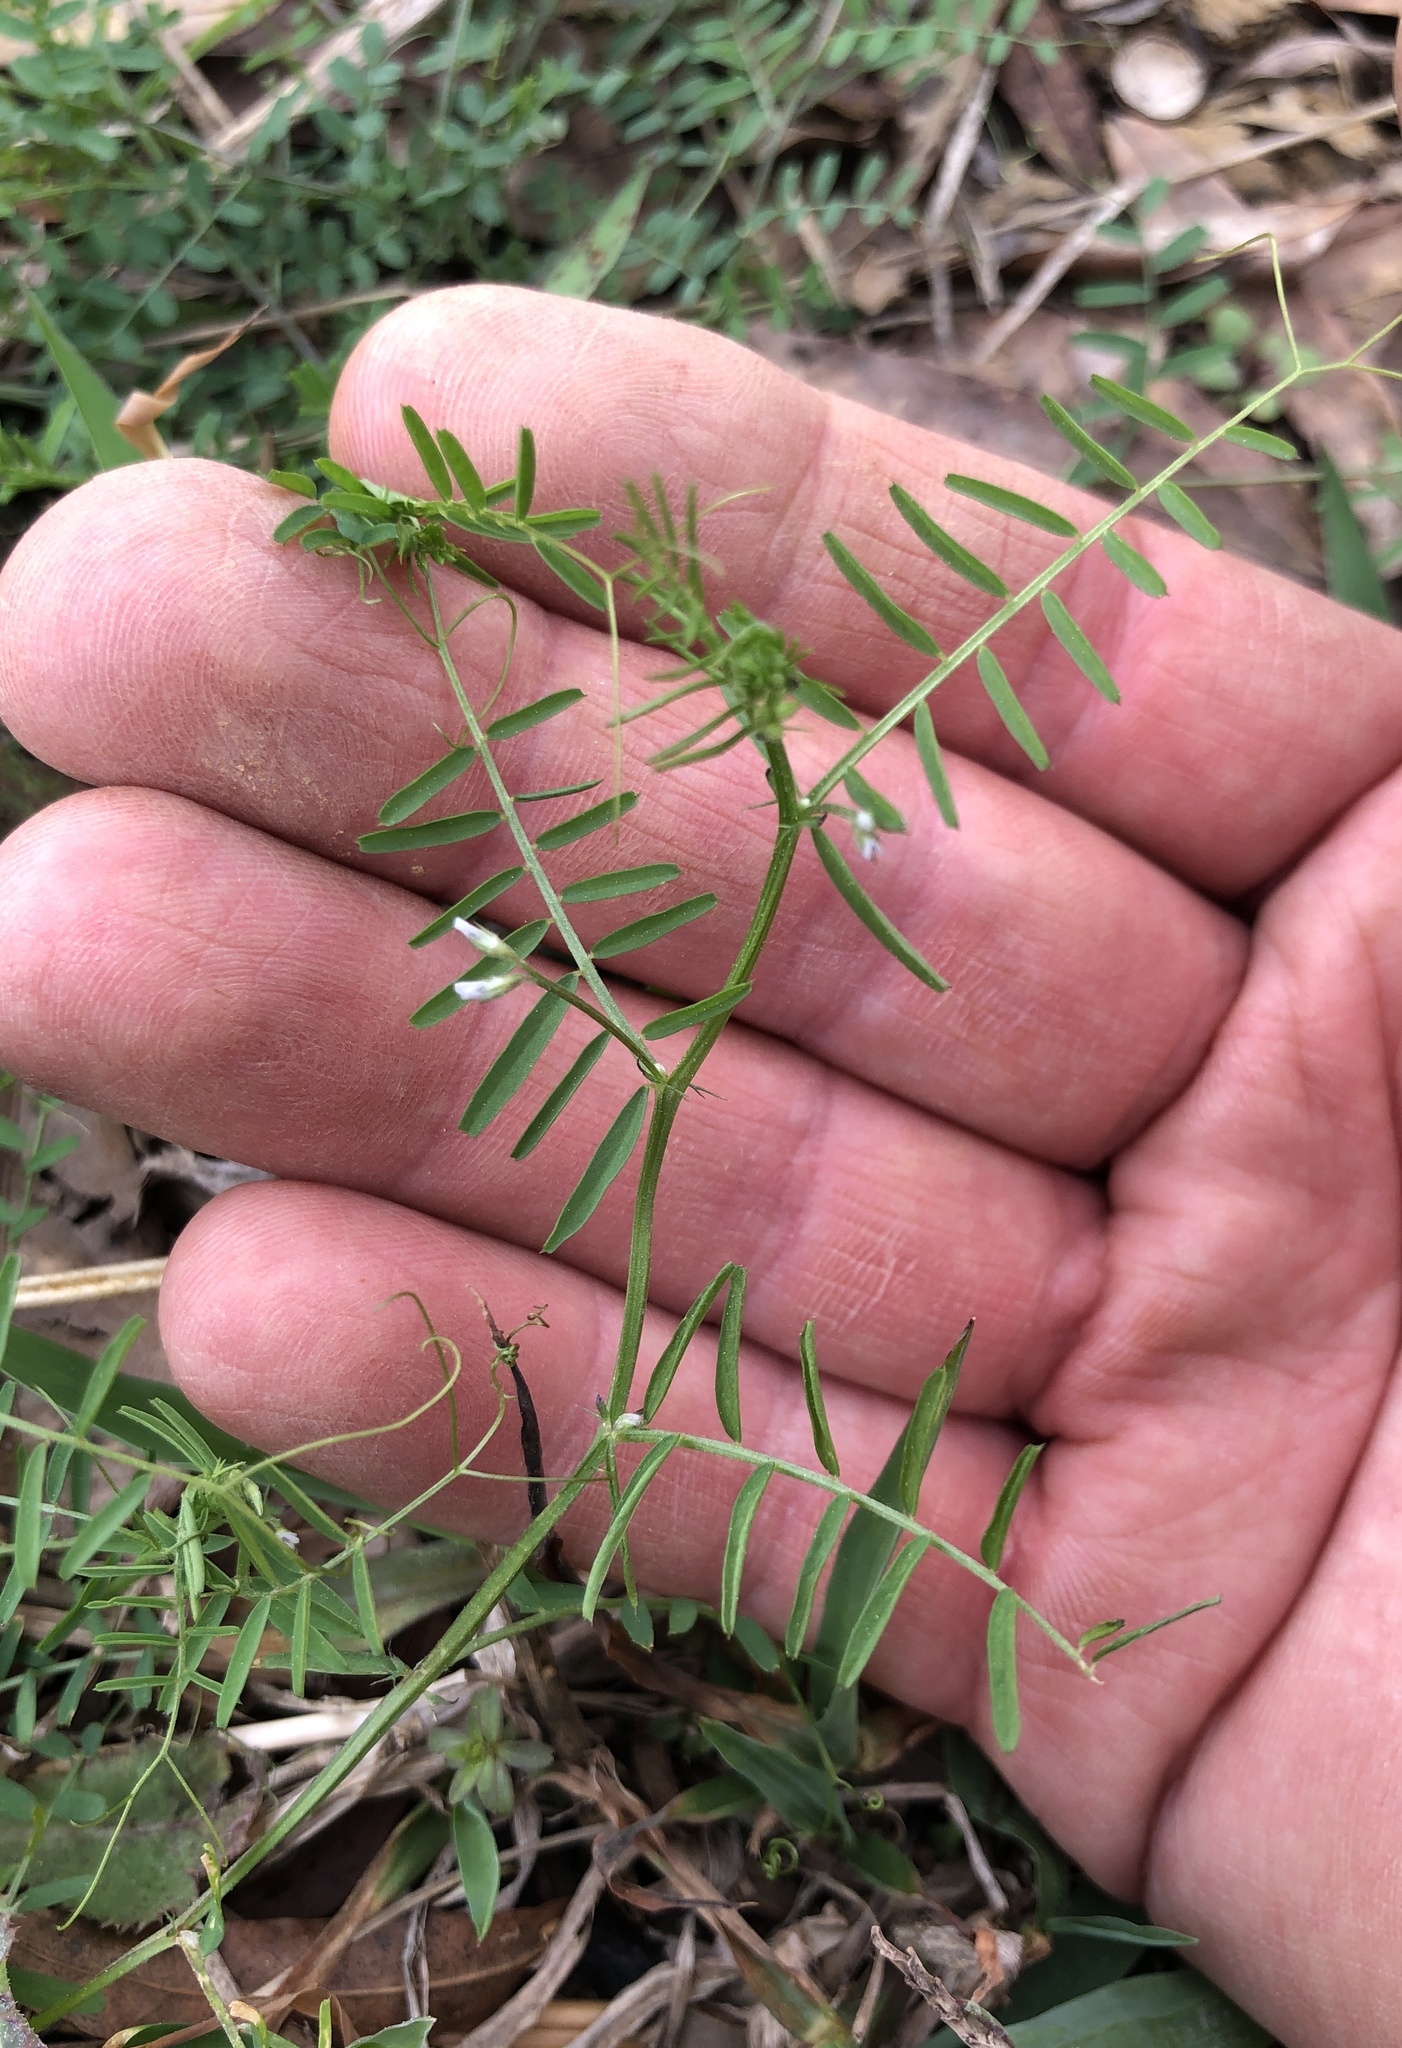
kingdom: Plantae
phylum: Tracheophyta
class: Magnoliopsida
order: Fabales
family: Fabaceae
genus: Vicia
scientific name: Vicia hirsuta
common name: Tiny vetch
